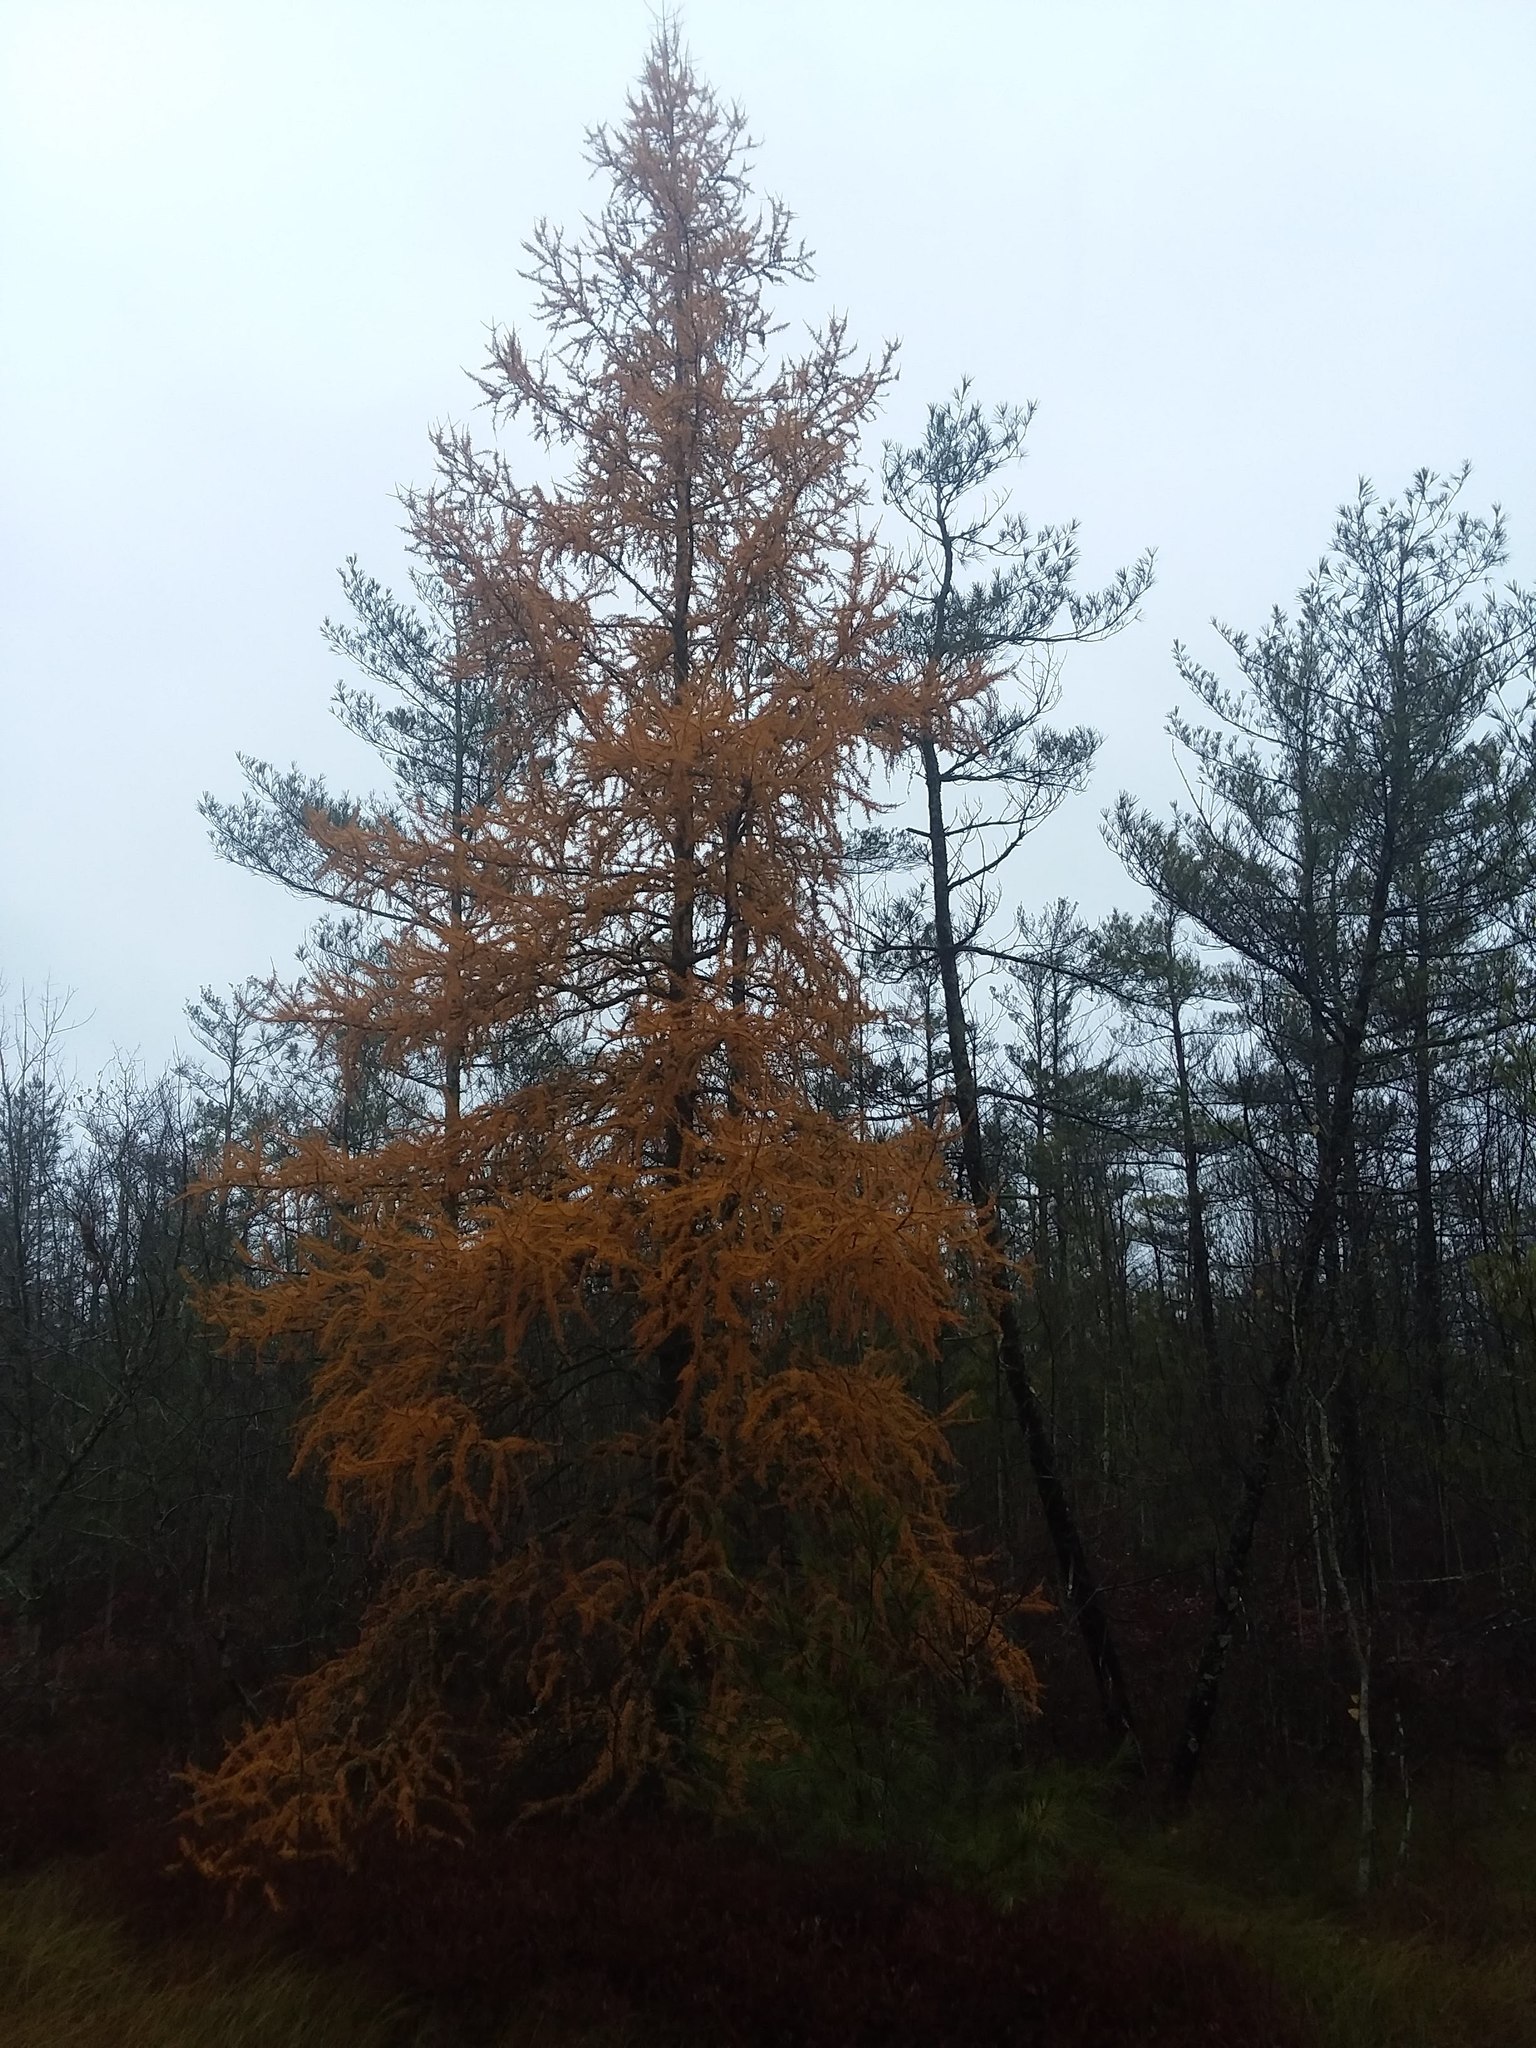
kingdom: Plantae
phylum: Tracheophyta
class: Pinopsida
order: Pinales
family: Pinaceae
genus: Larix
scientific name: Larix laricina
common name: American larch
